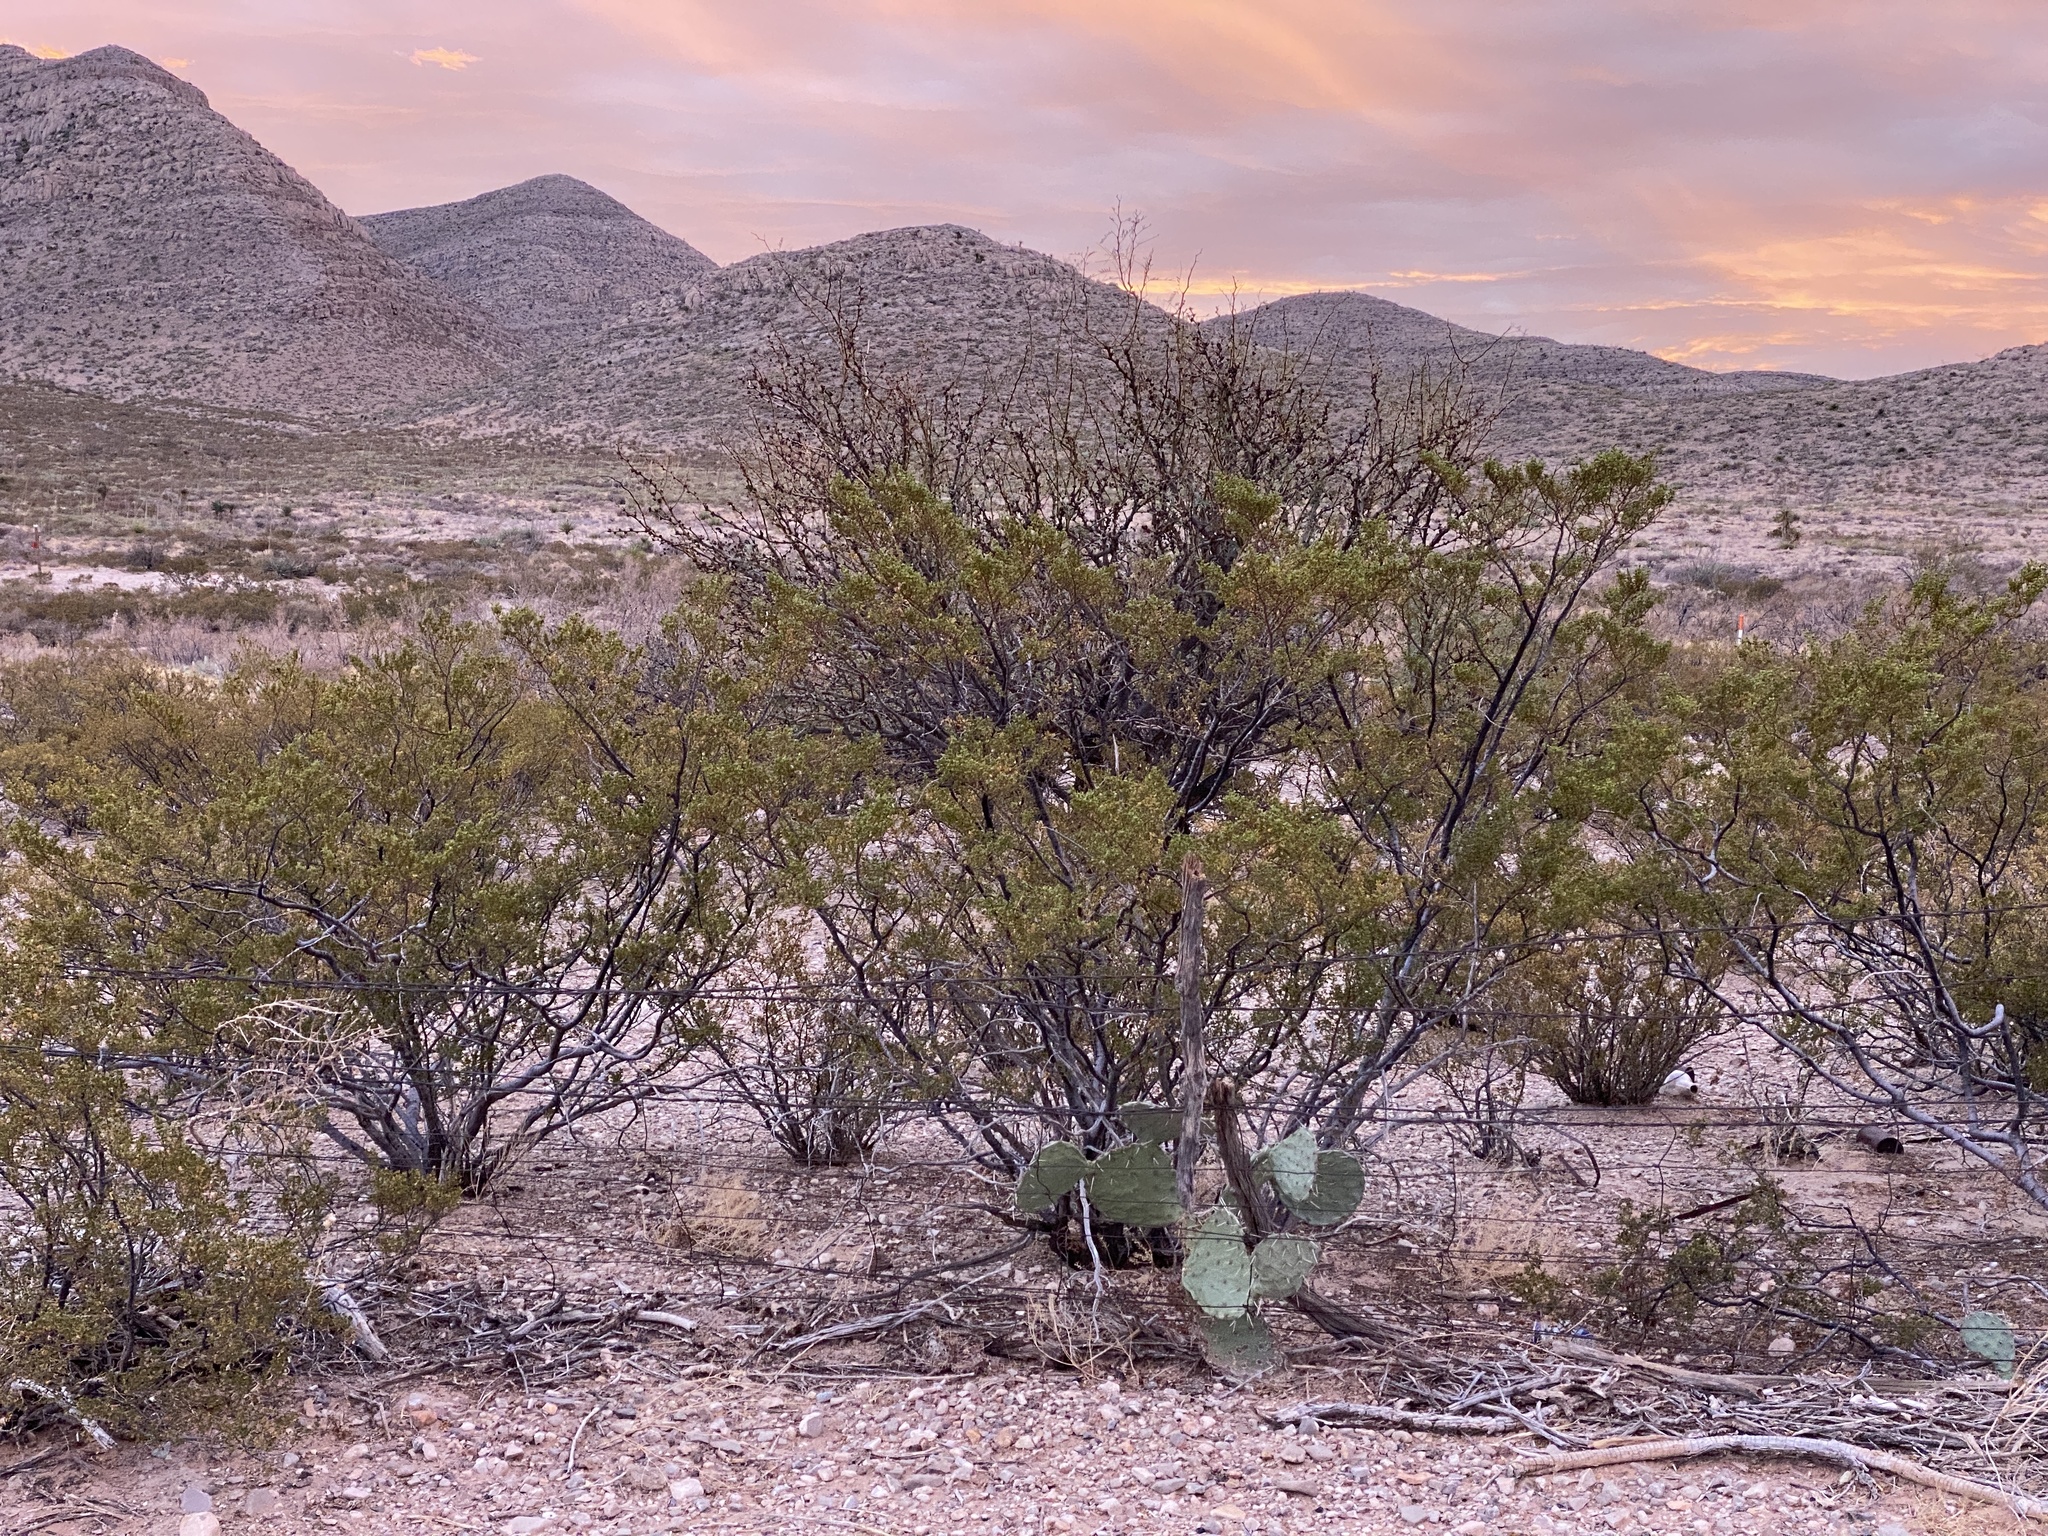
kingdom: Plantae
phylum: Tracheophyta
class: Magnoliopsida
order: Zygophyllales
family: Zygophyllaceae
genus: Larrea
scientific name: Larrea tridentata
